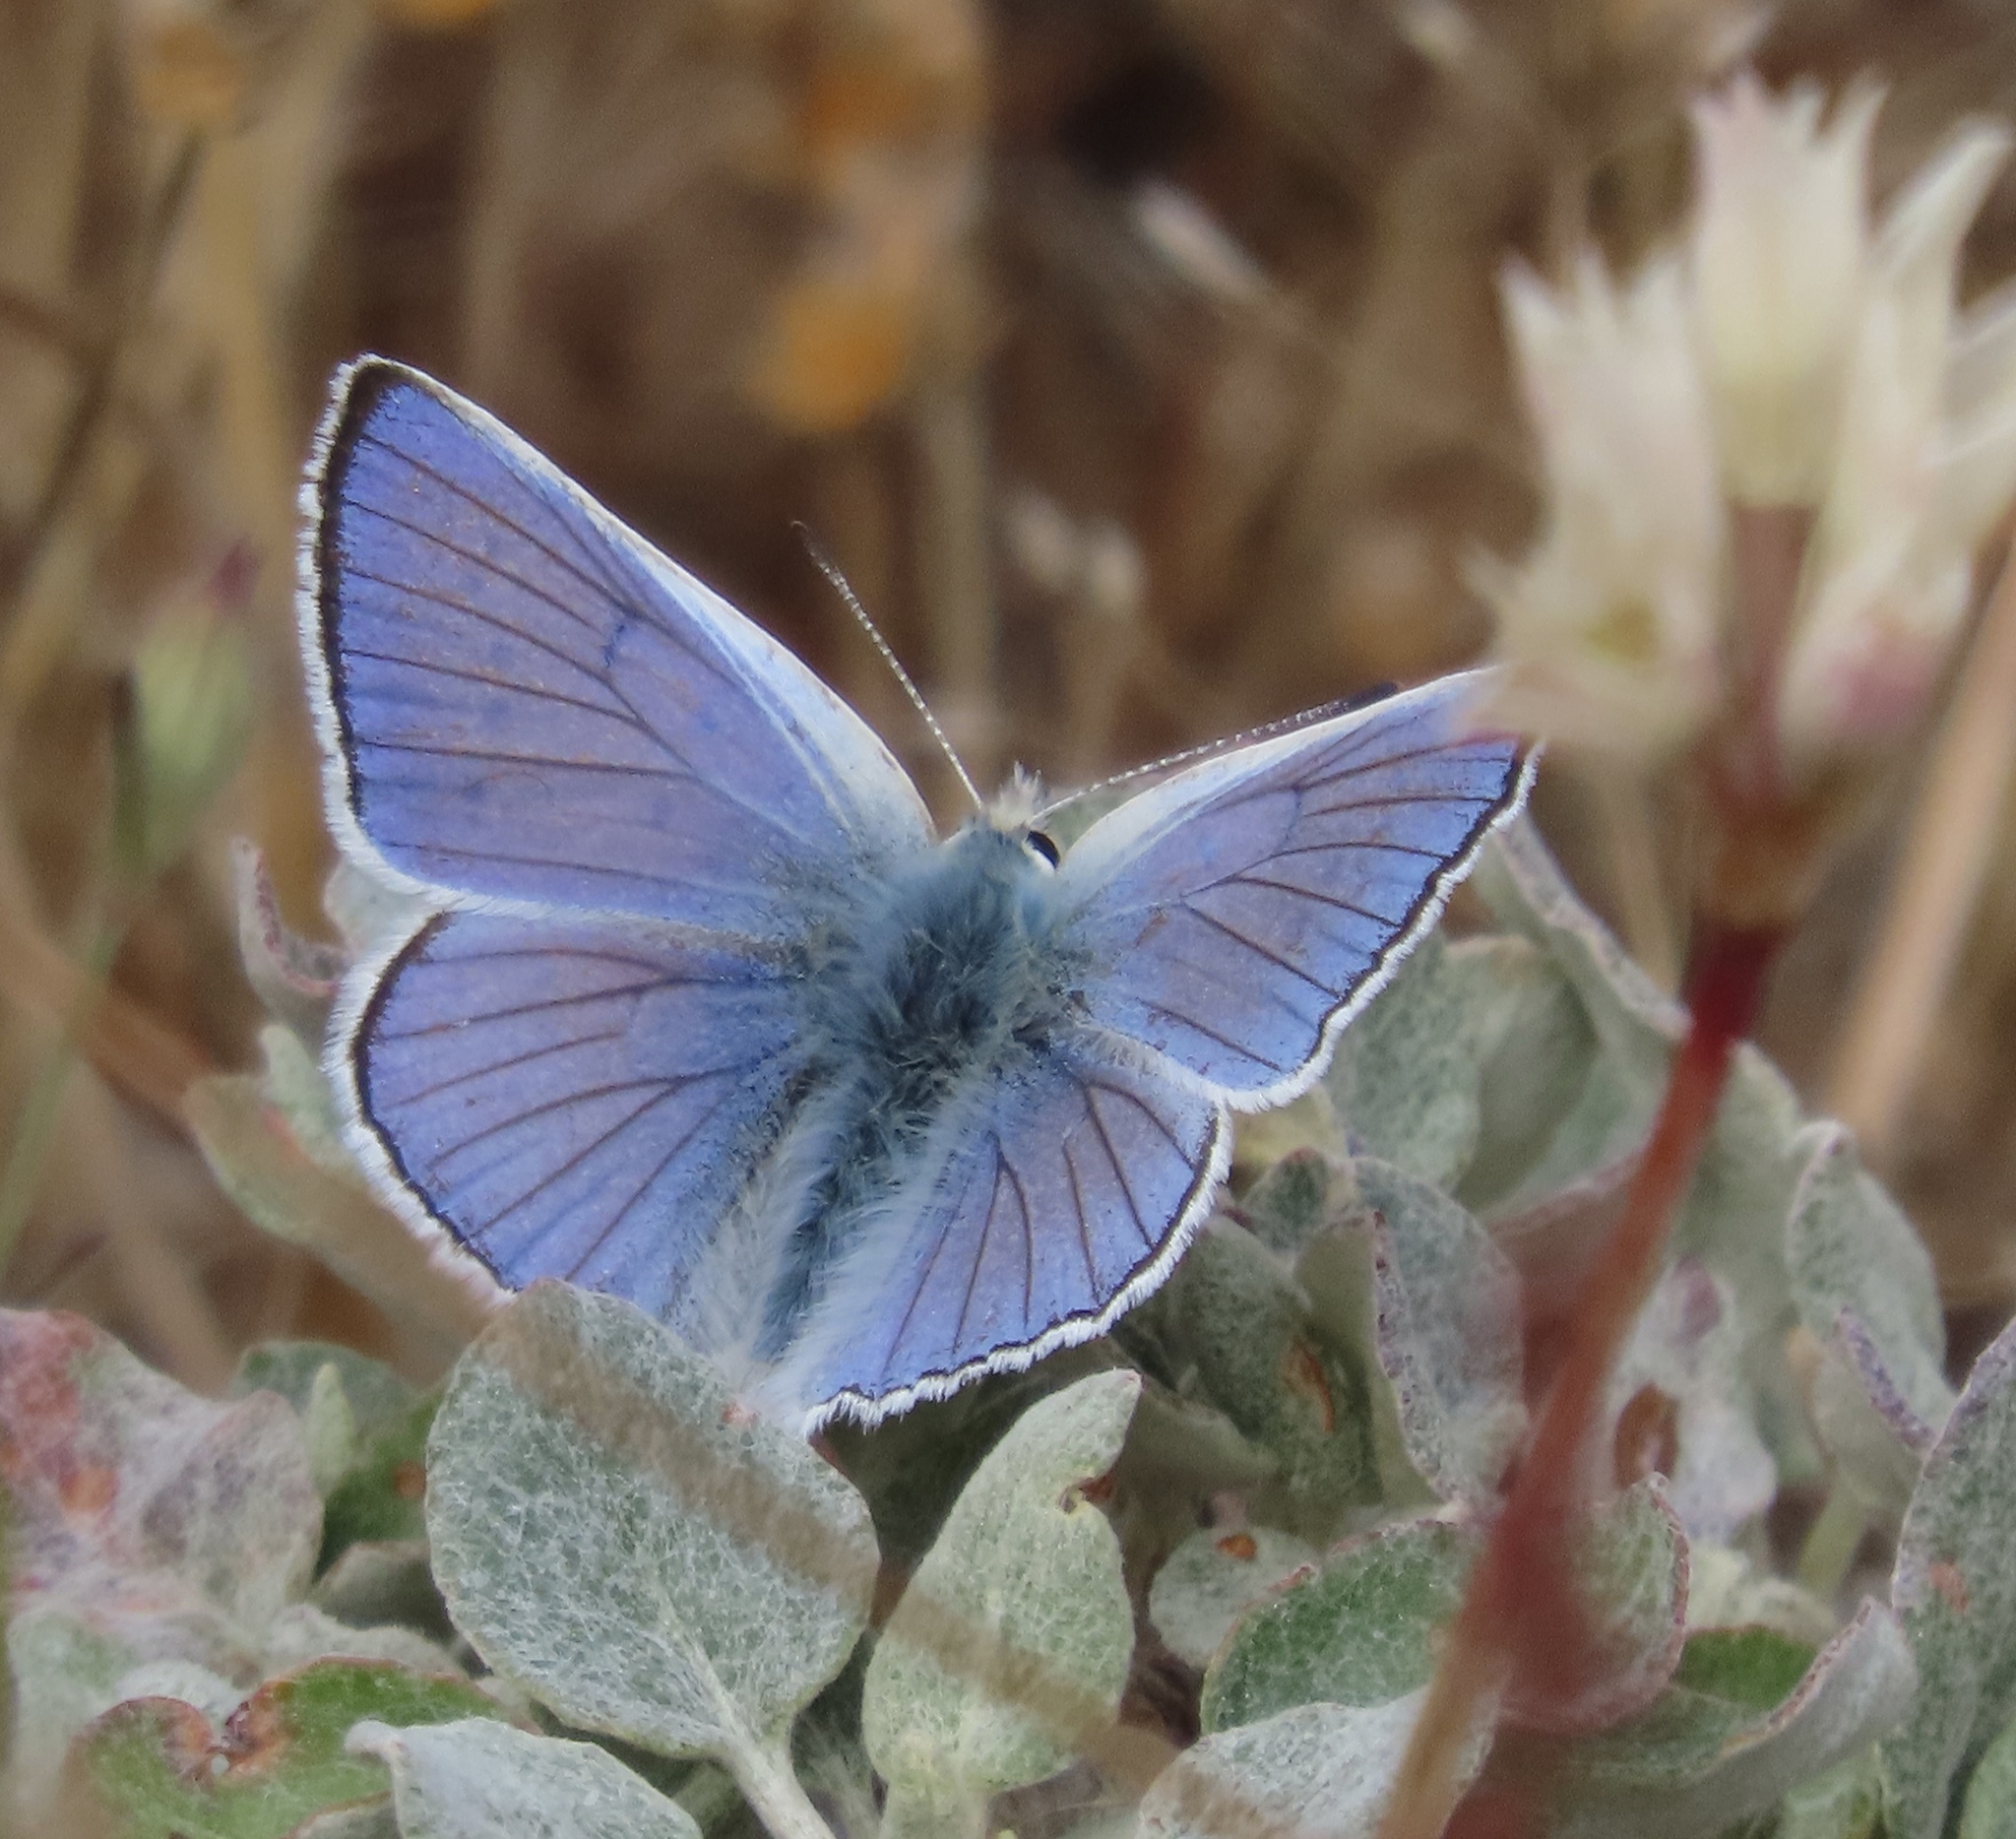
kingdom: Animalia
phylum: Arthropoda
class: Insecta
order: Lepidoptera
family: Lycaenidae
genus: Tharsalea
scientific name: Tharsalea heteronea
